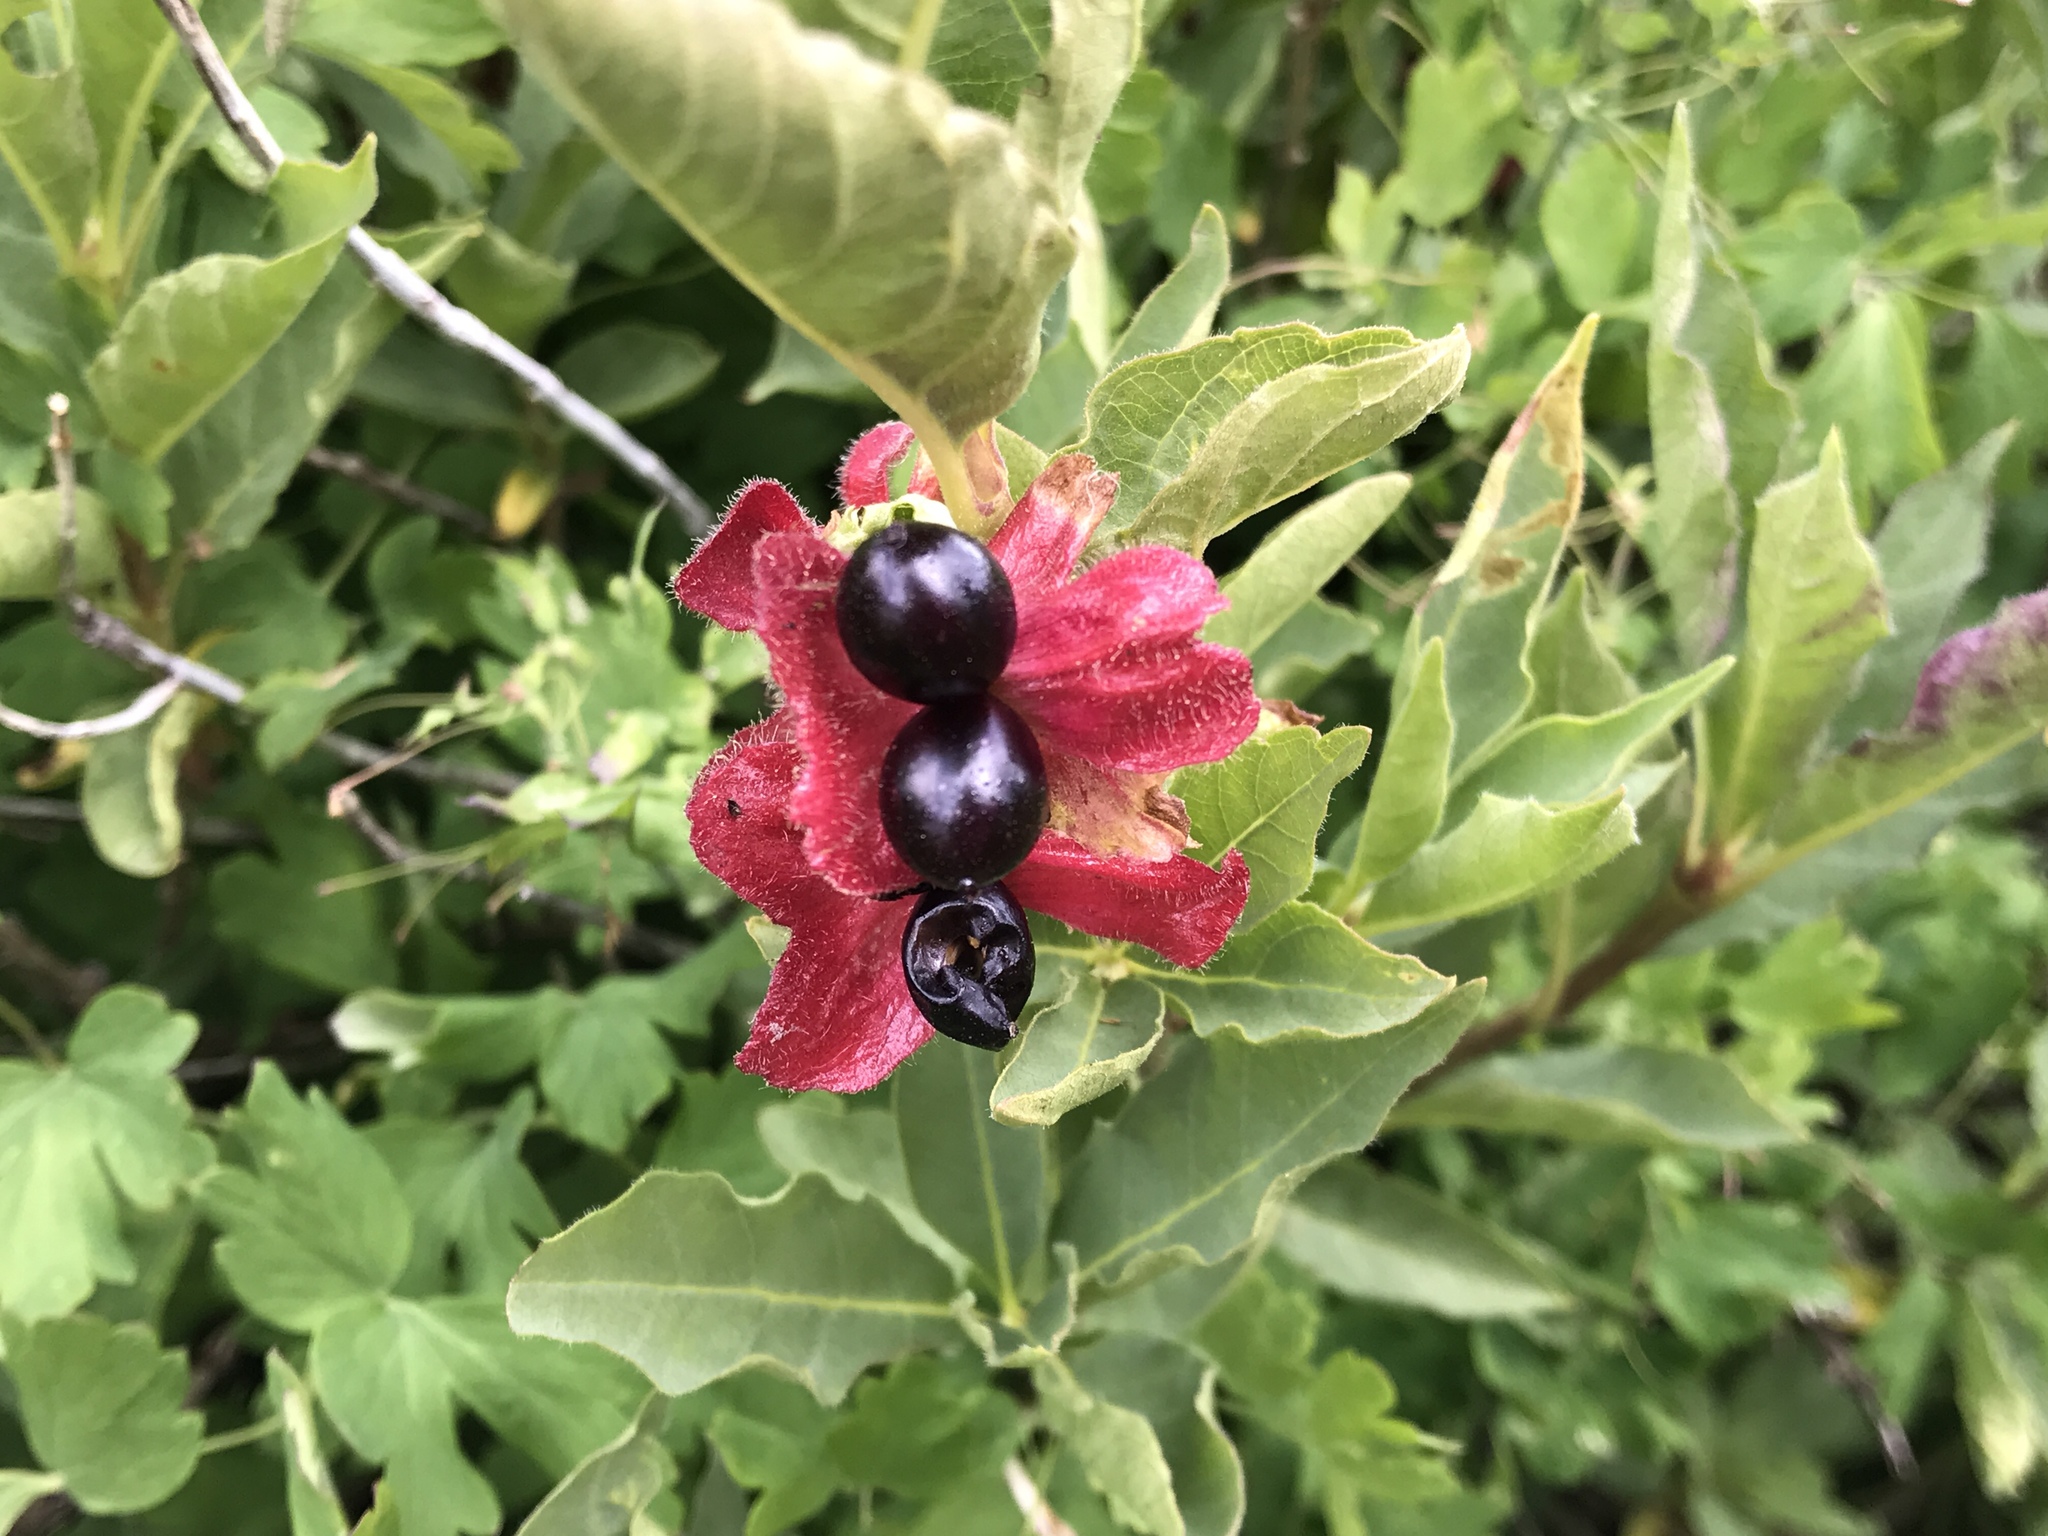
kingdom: Plantae
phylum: Tracheophyta
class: Magnoliopsida
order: Dipsacales
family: Caprifoliaceae
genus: Lonicera
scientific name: Lonicera involucrata
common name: Californian honeysuckle
